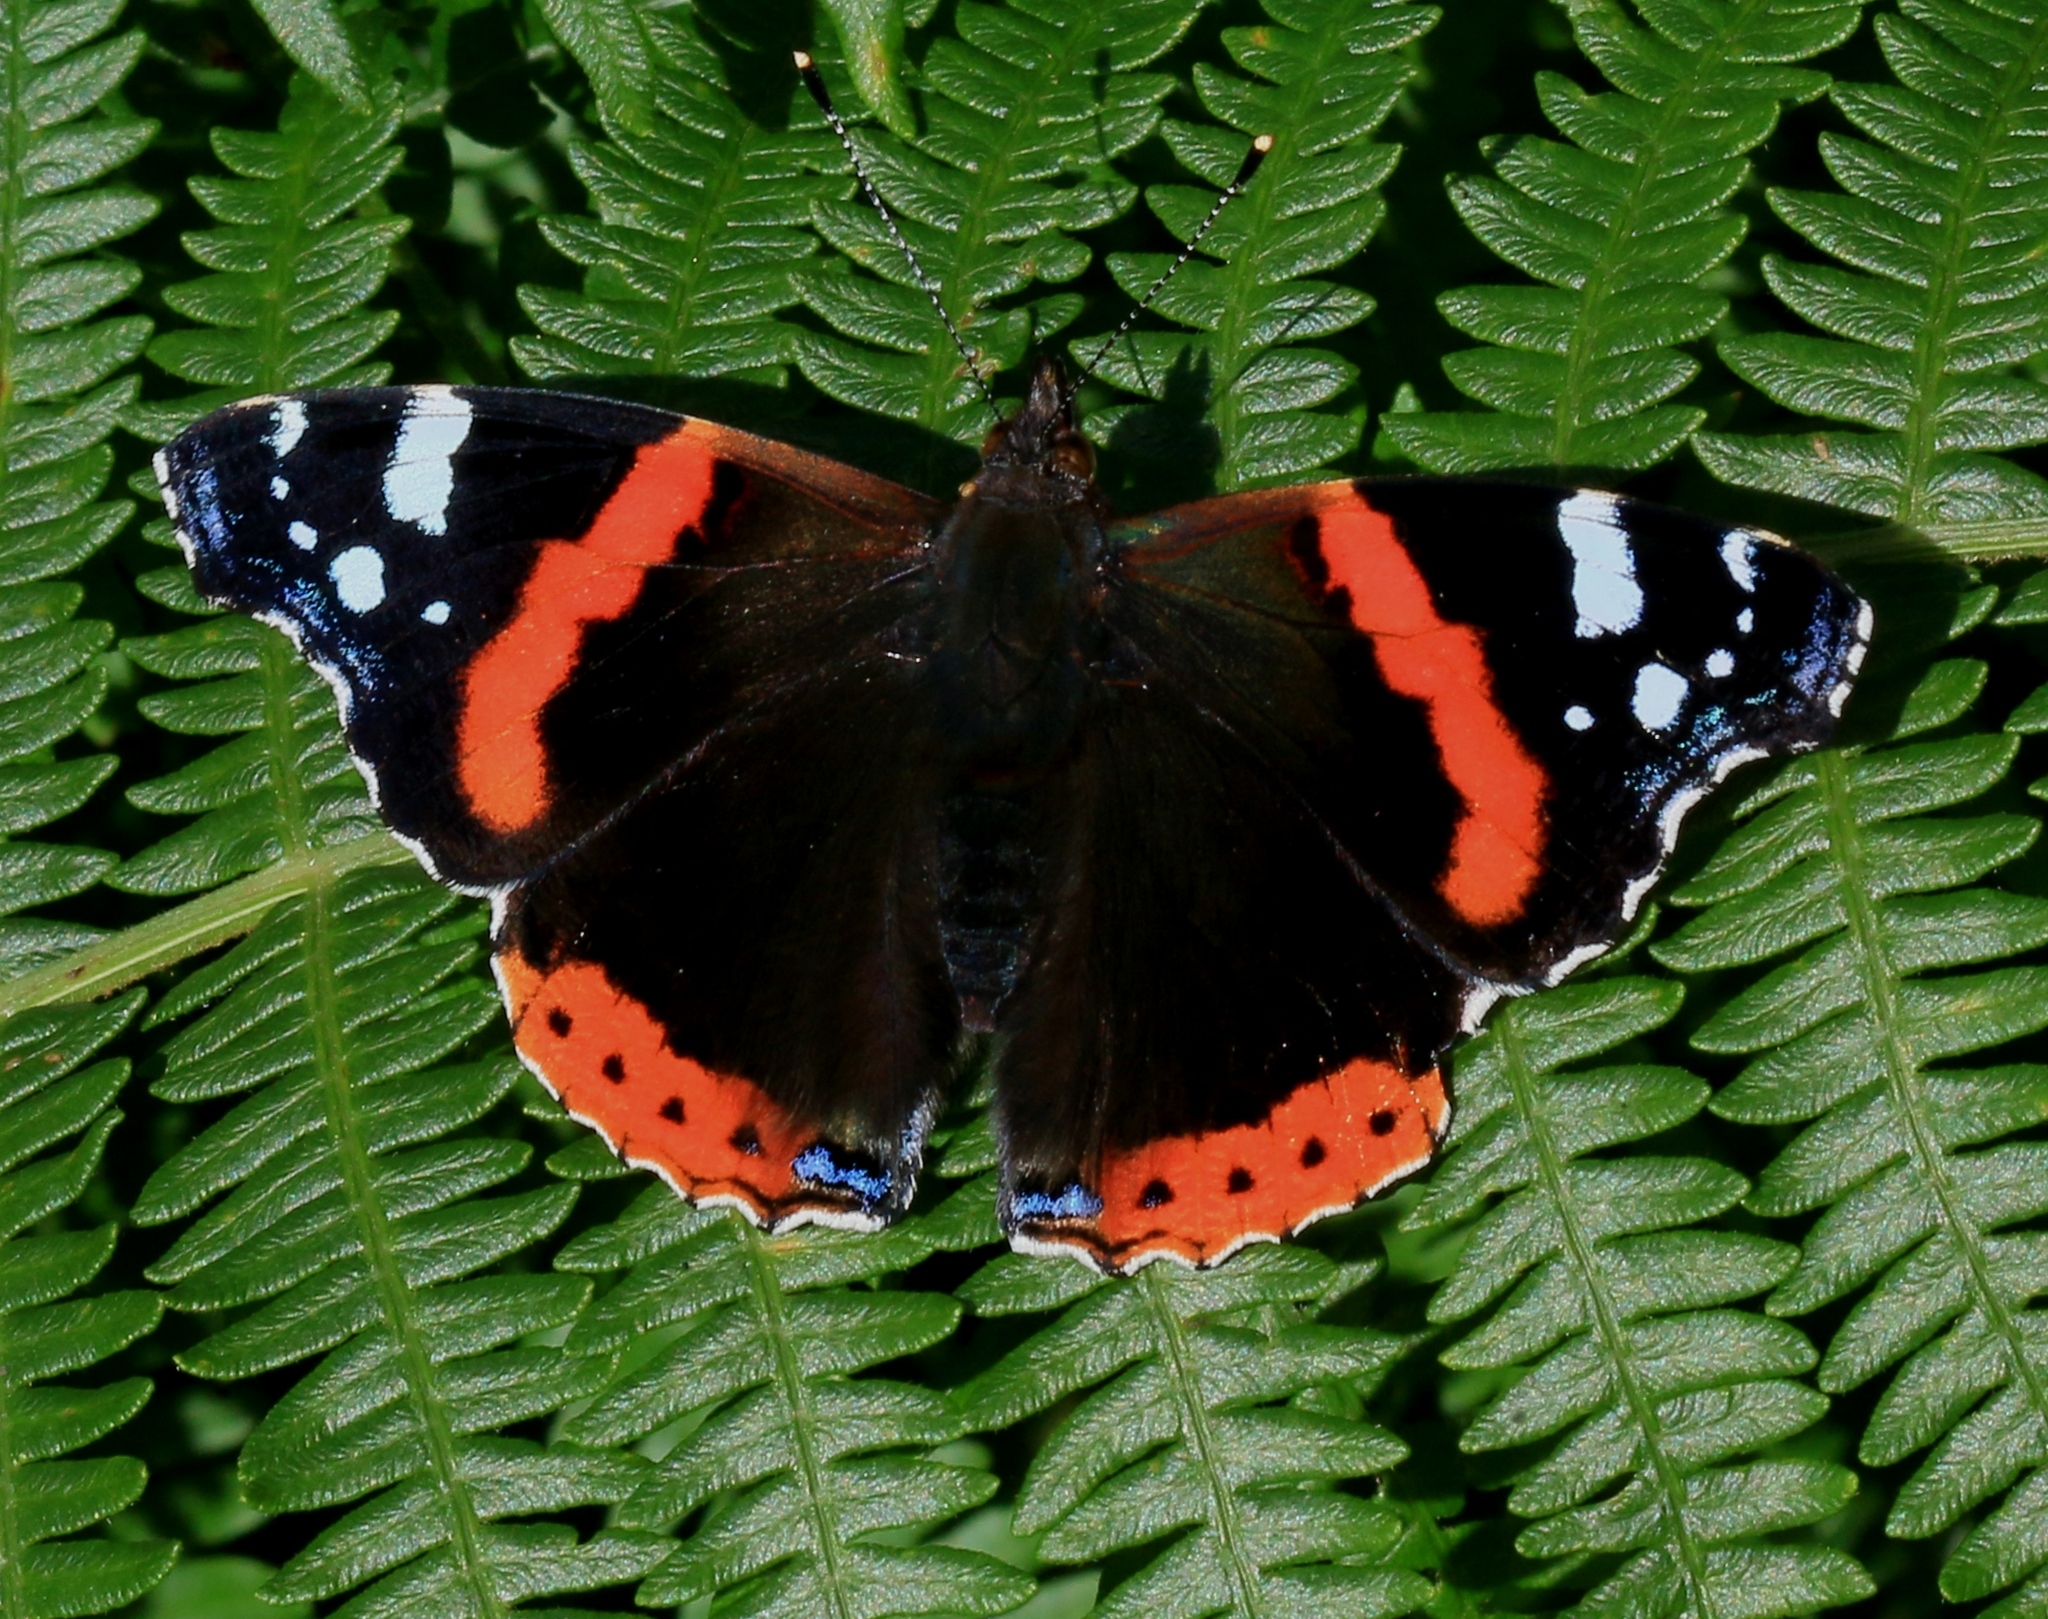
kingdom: Animalia
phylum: Arthropoda
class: Insecta
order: Lepidoptera
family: Nymphalidae
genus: Vanessa
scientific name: Vanessa atalanta
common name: Red admiral
